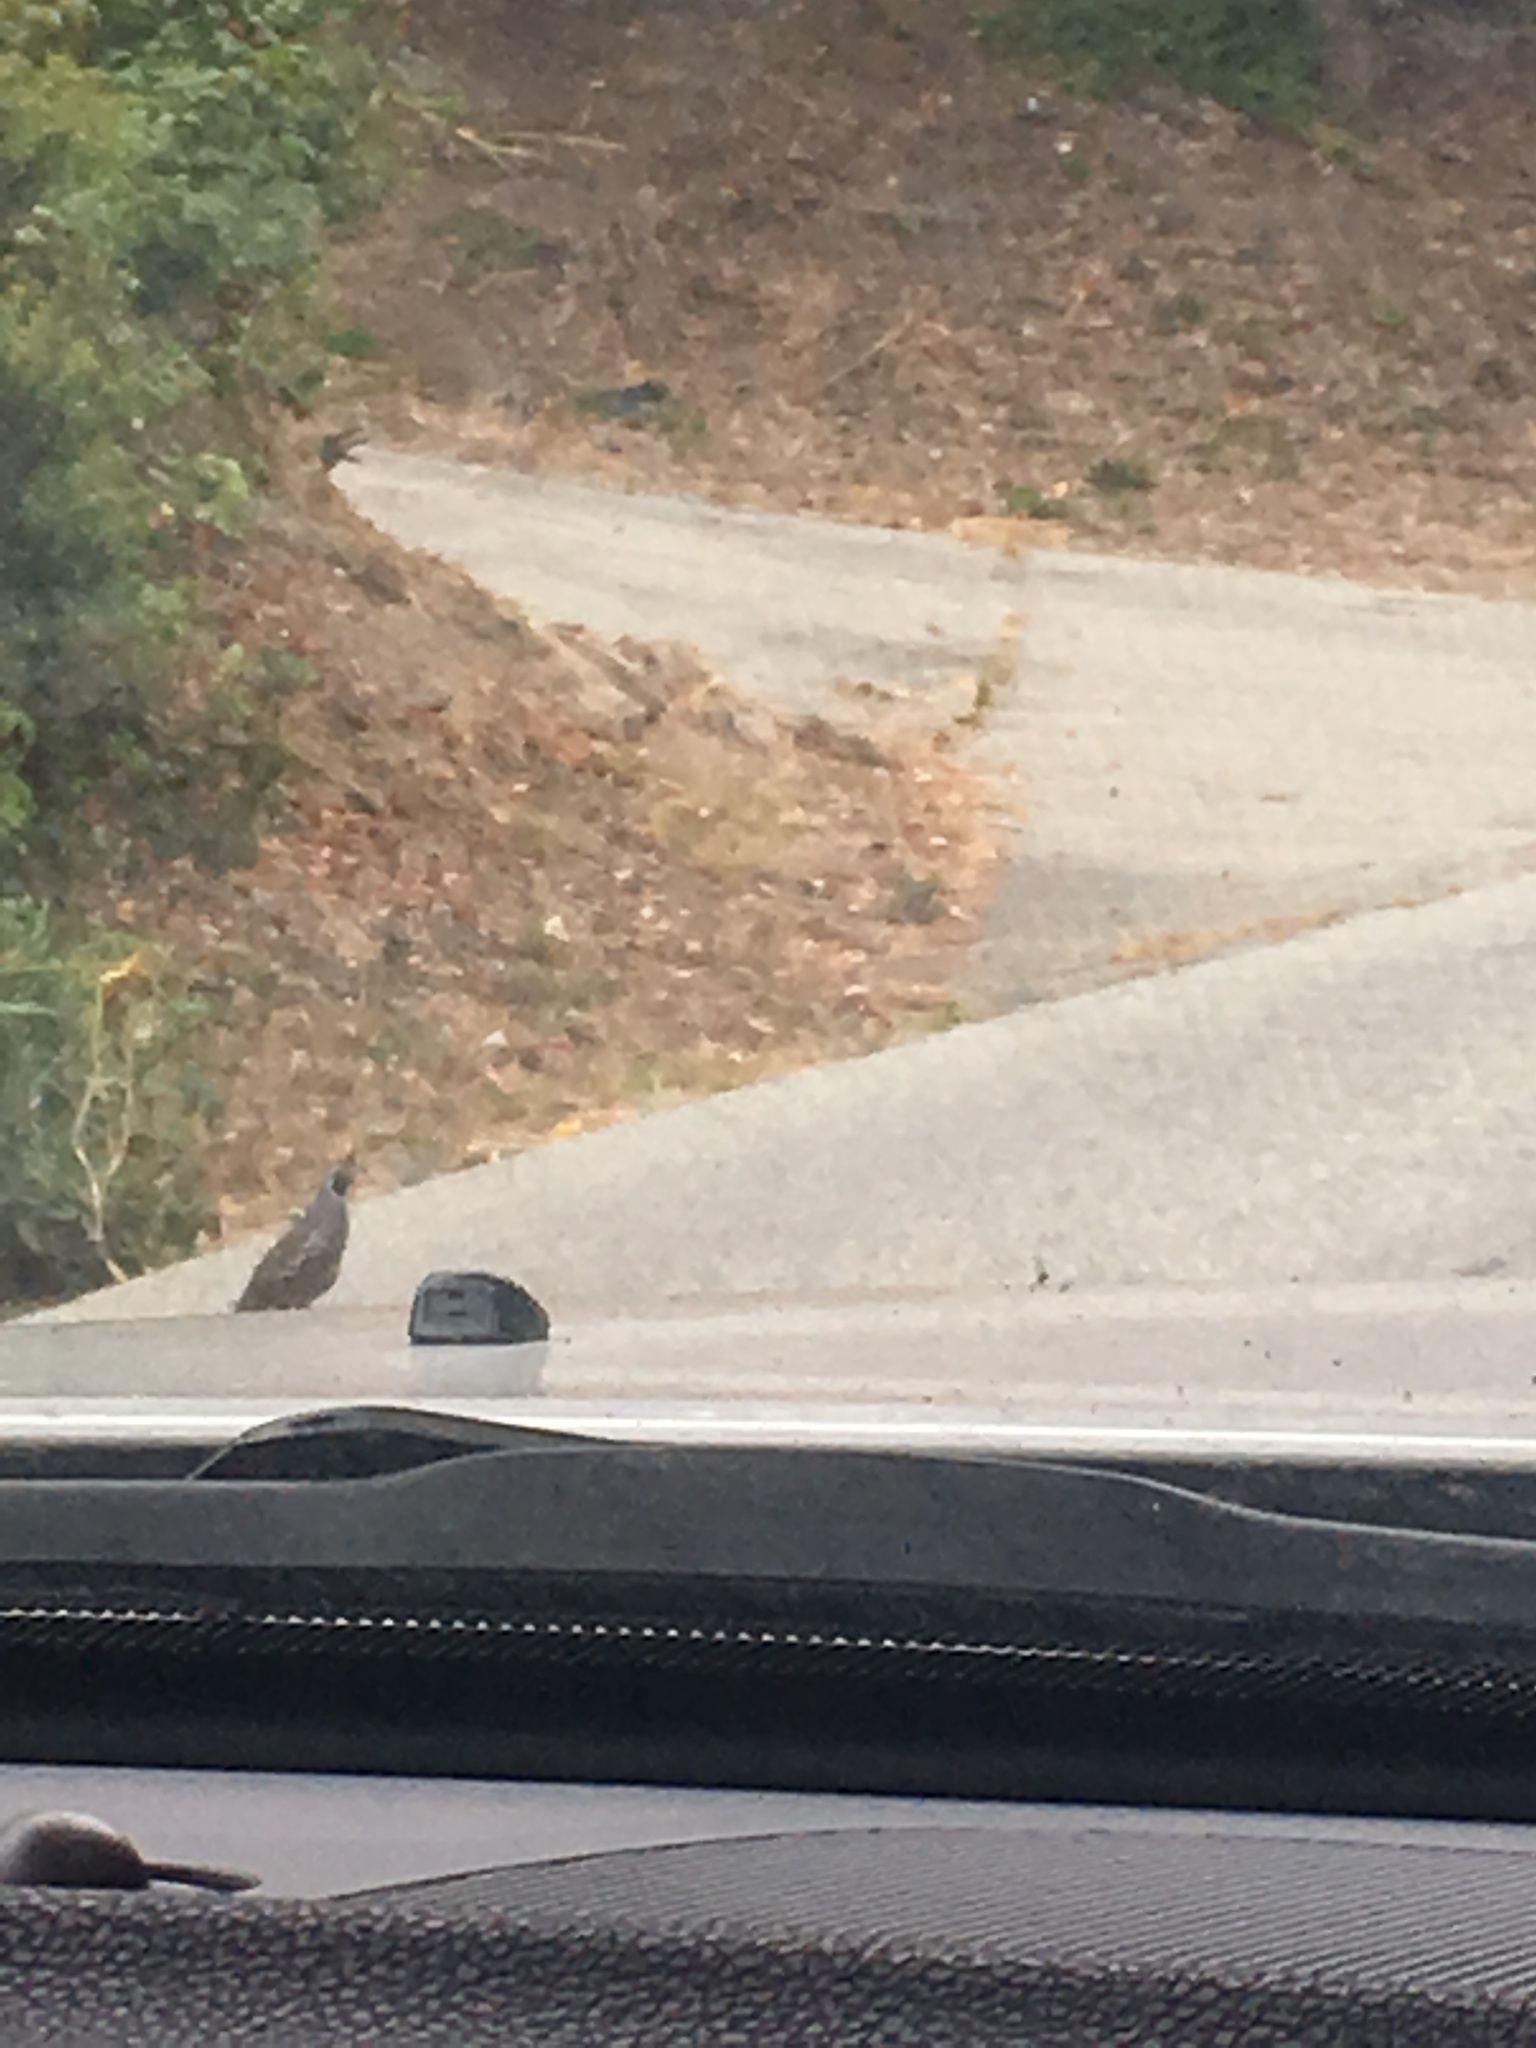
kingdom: Animalia
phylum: Chordata
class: Aves
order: Galliformes
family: Odontophoridae
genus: Callipepla
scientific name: Callipepla californica
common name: California quail
